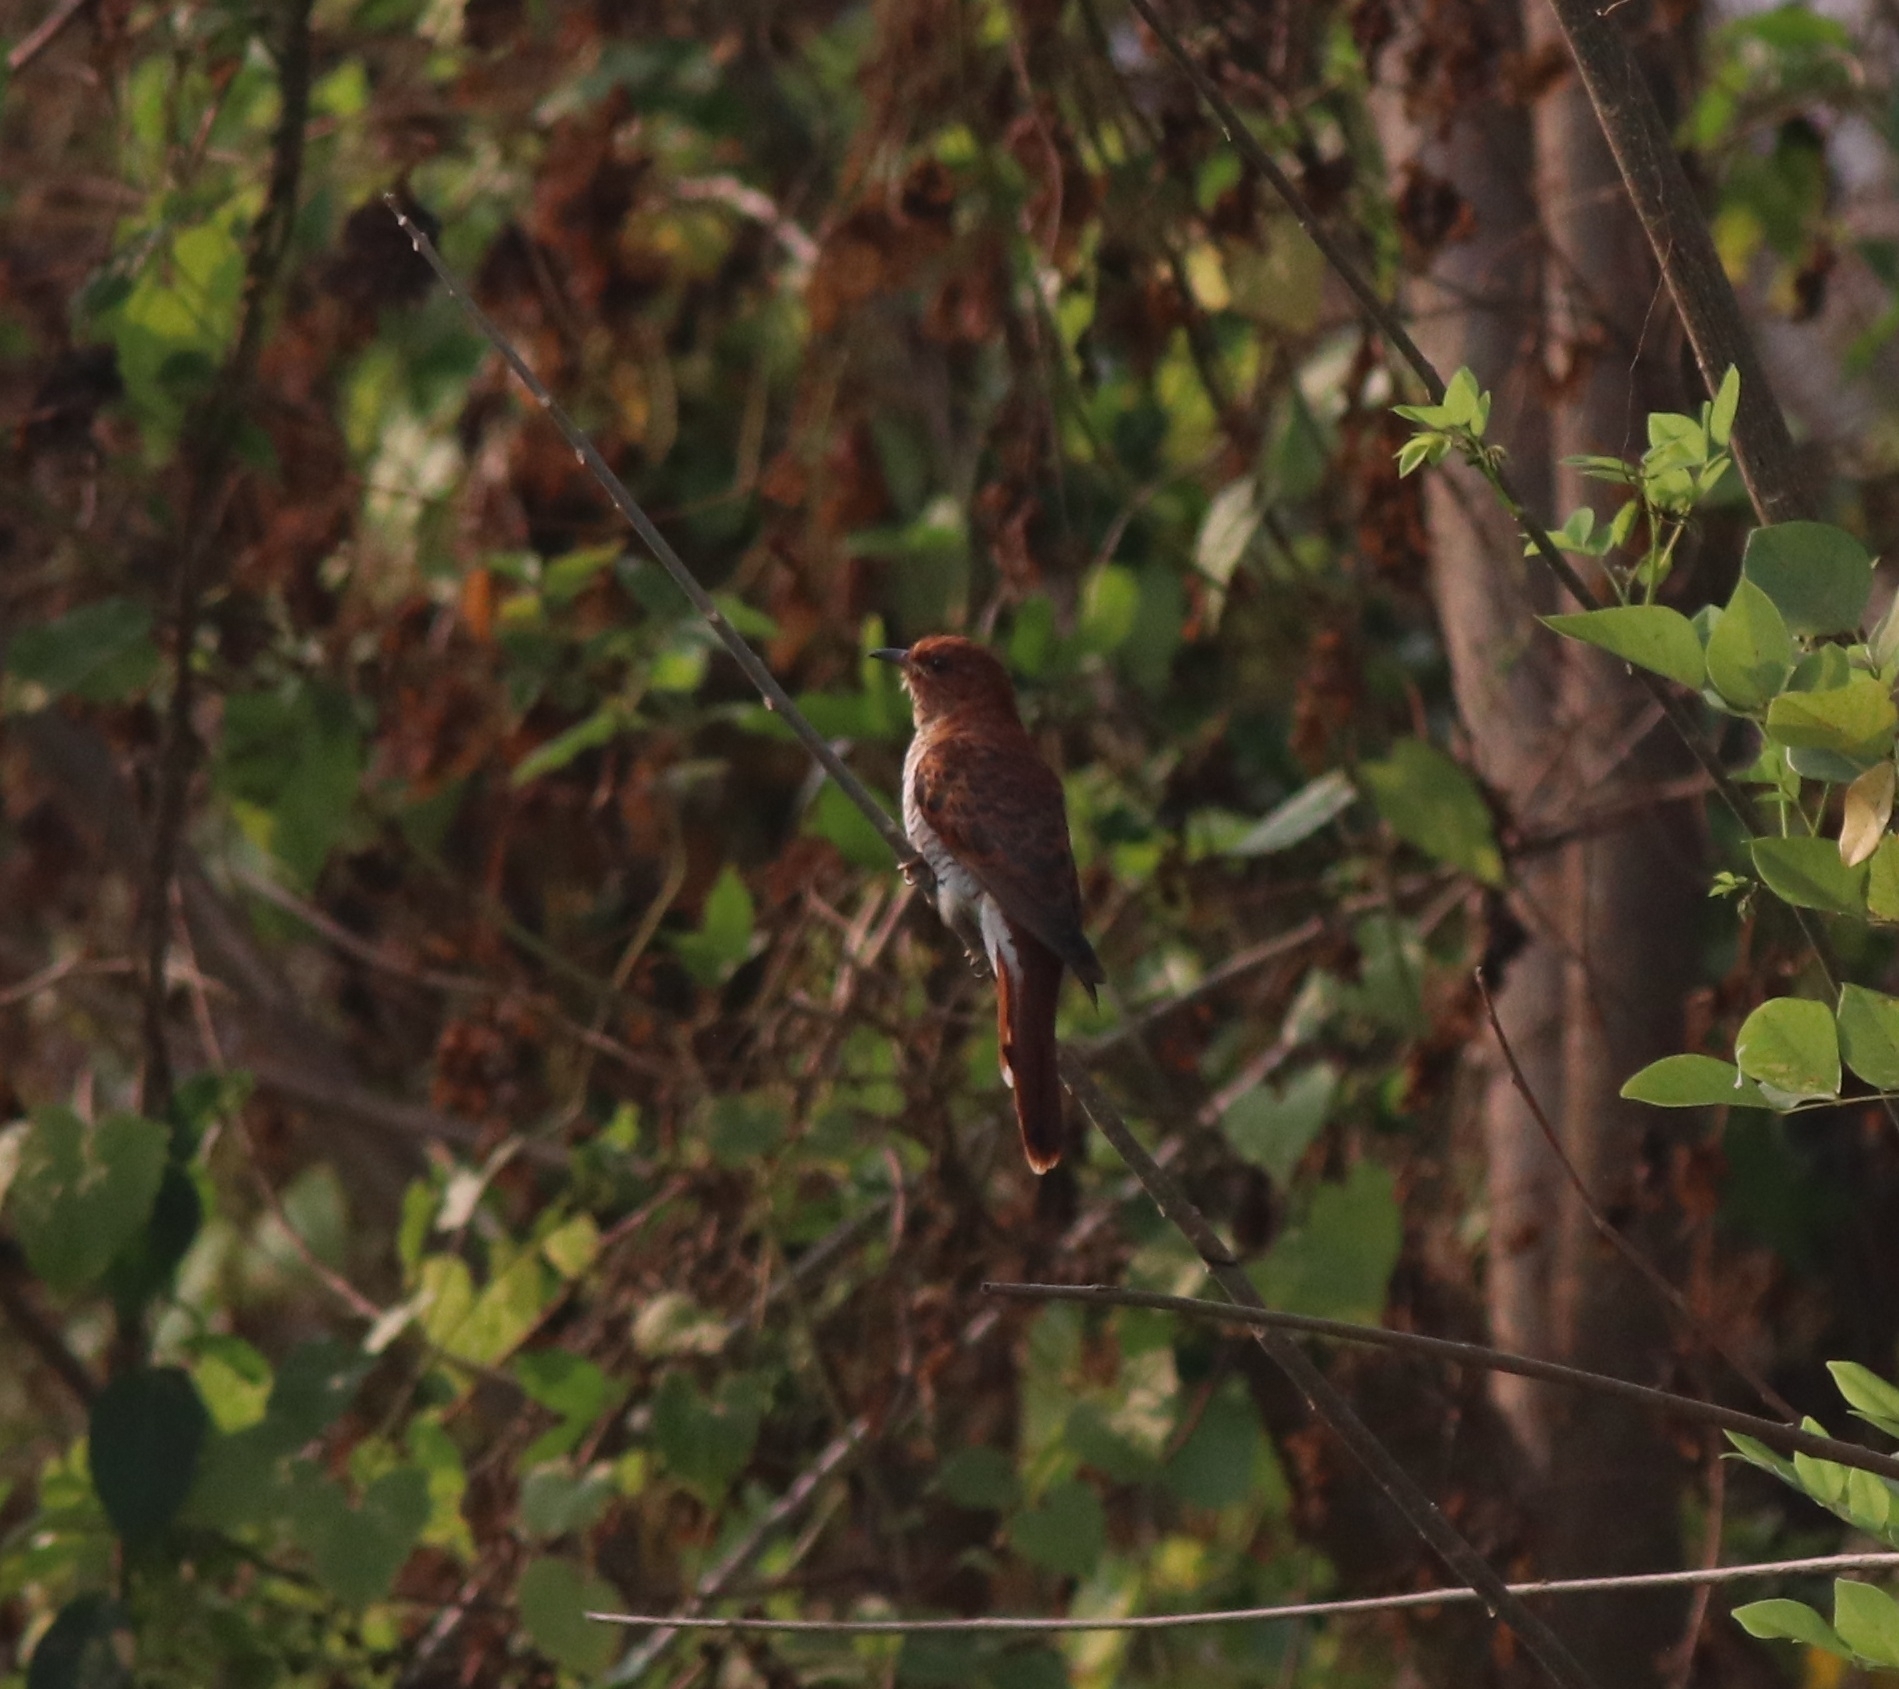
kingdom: Animalia
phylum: Chordata
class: Aves
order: Cuculiformes
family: Cuculidae
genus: Cacomantis
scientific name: Cacomantis passerinus
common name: Grey-bellied cuckoo
